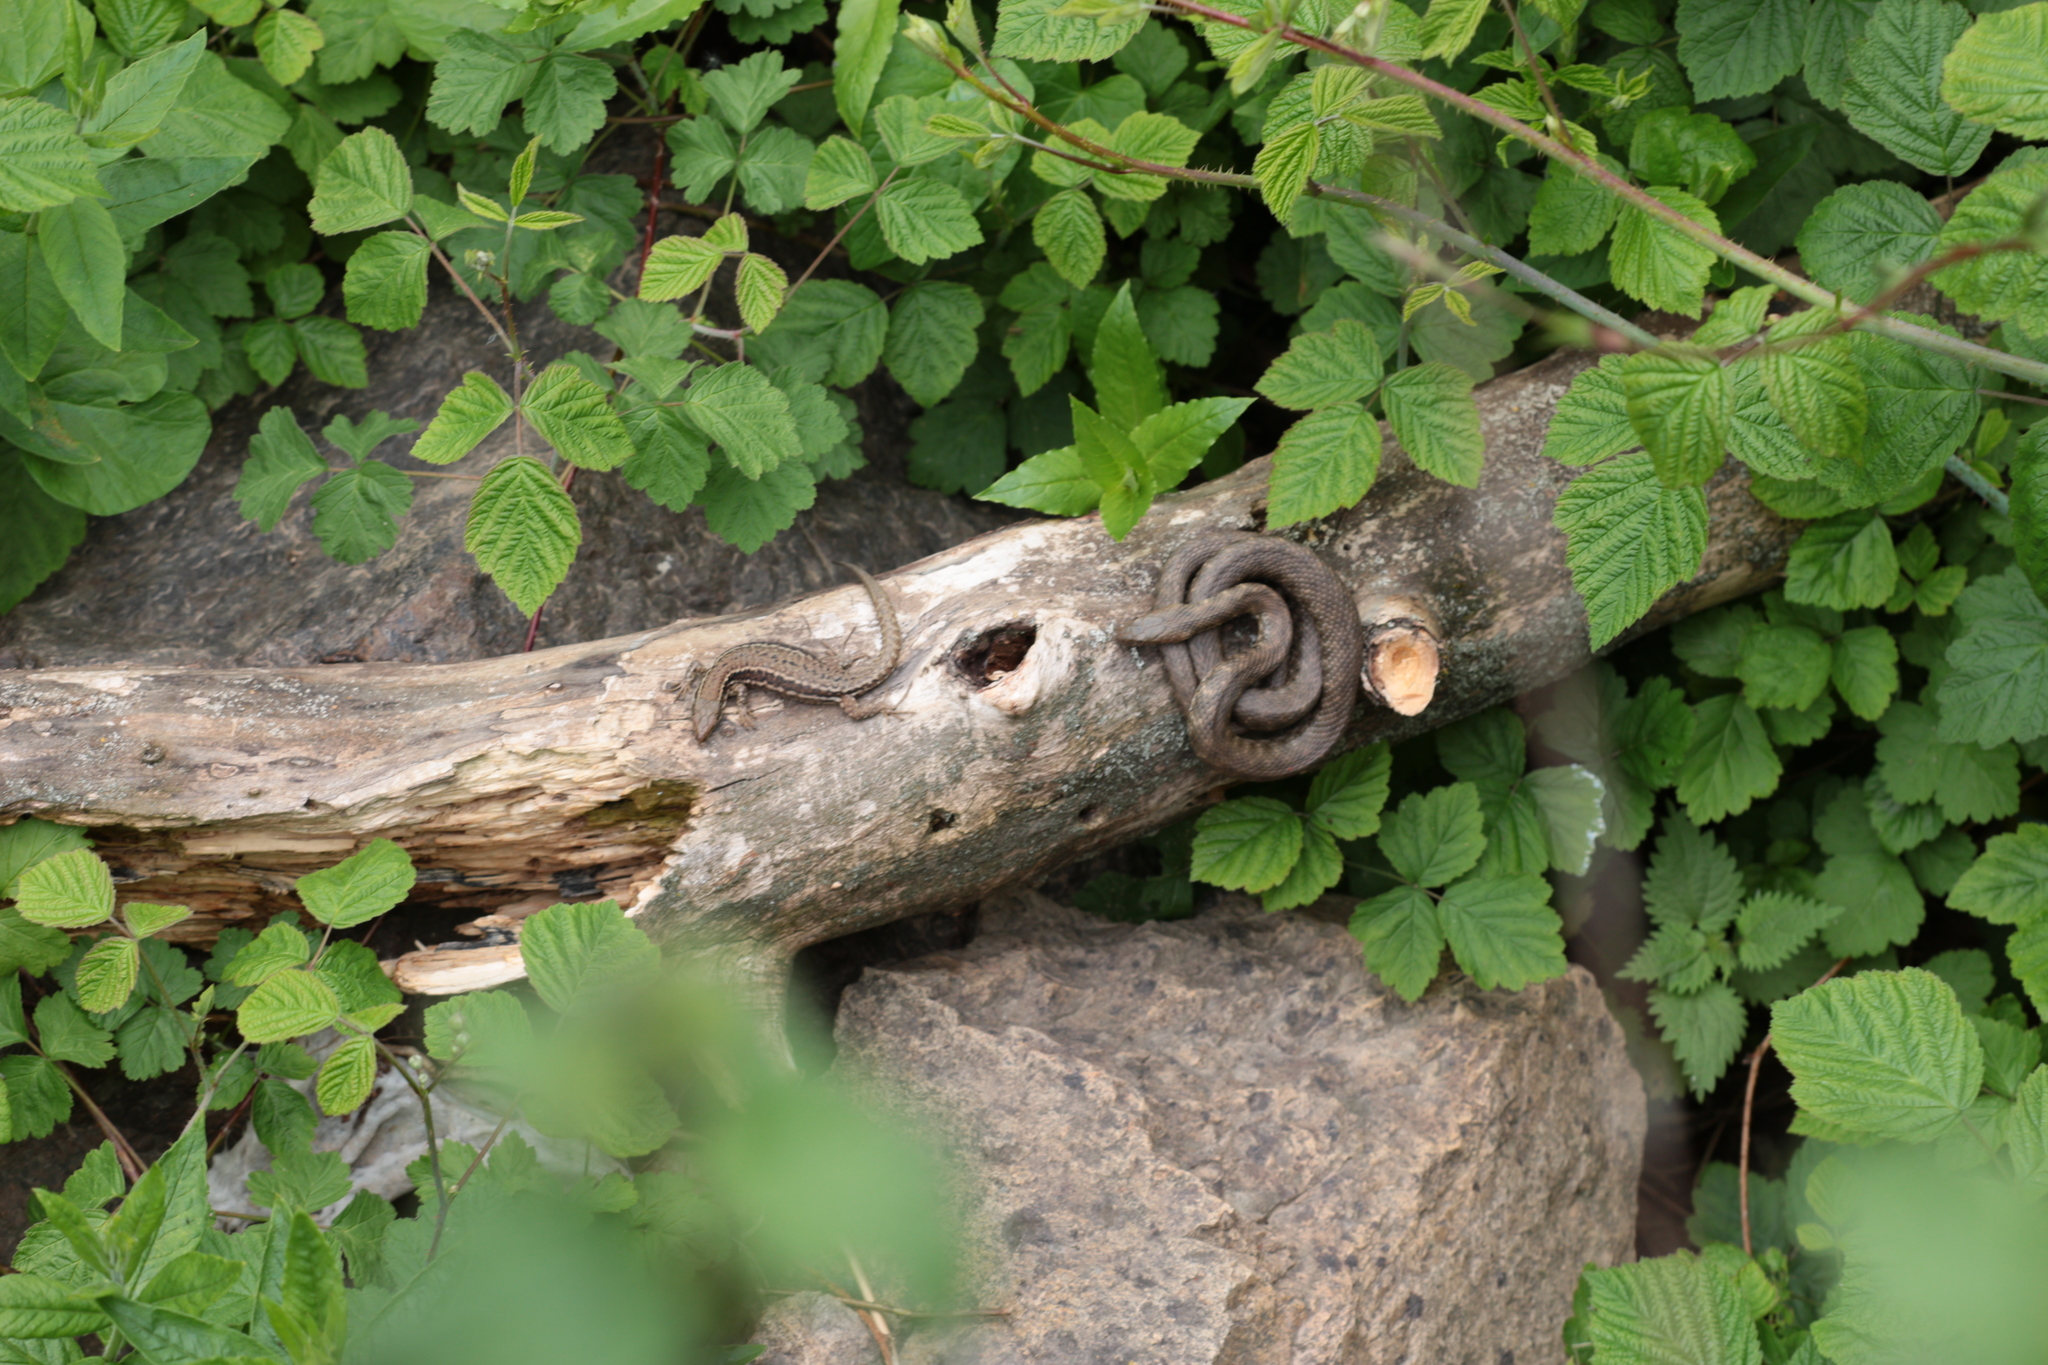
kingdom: Animalia
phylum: Chordata
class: Squamata
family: Lacertidae
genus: Podarcis
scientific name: Podarcis muralis
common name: Common wall lizard
